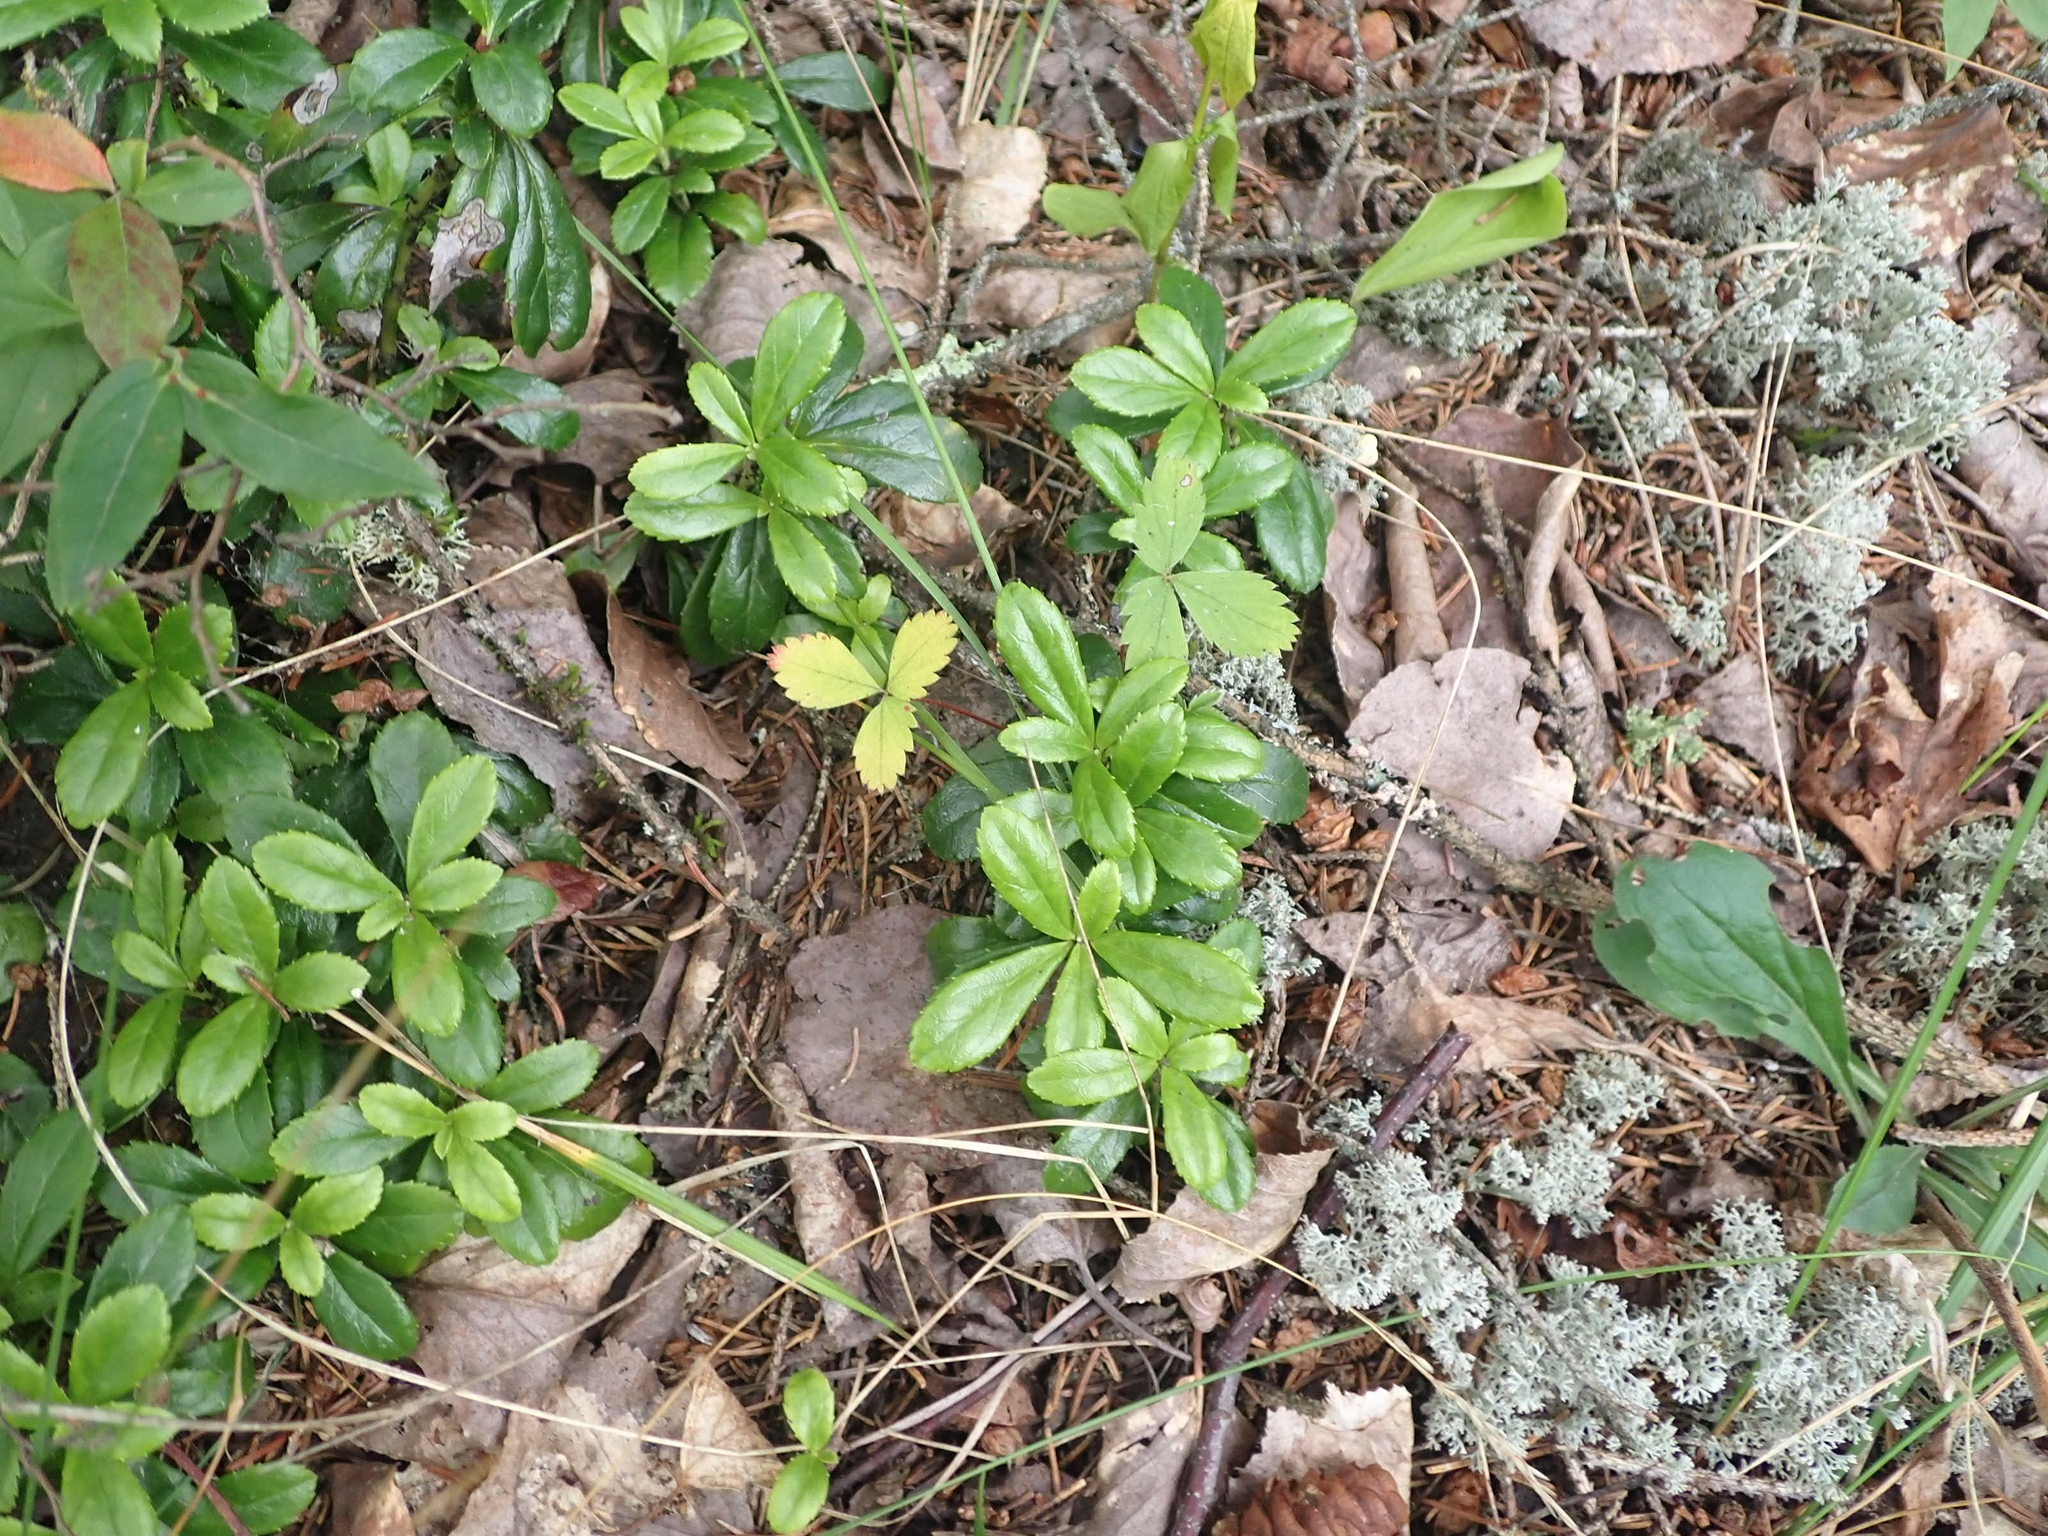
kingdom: Plantae
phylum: Tracheophyta
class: Magnoliopsida
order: Ericales
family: Ericaceae
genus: Chimaphila
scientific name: Chimaphila umbellata
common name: Pipsissewa
